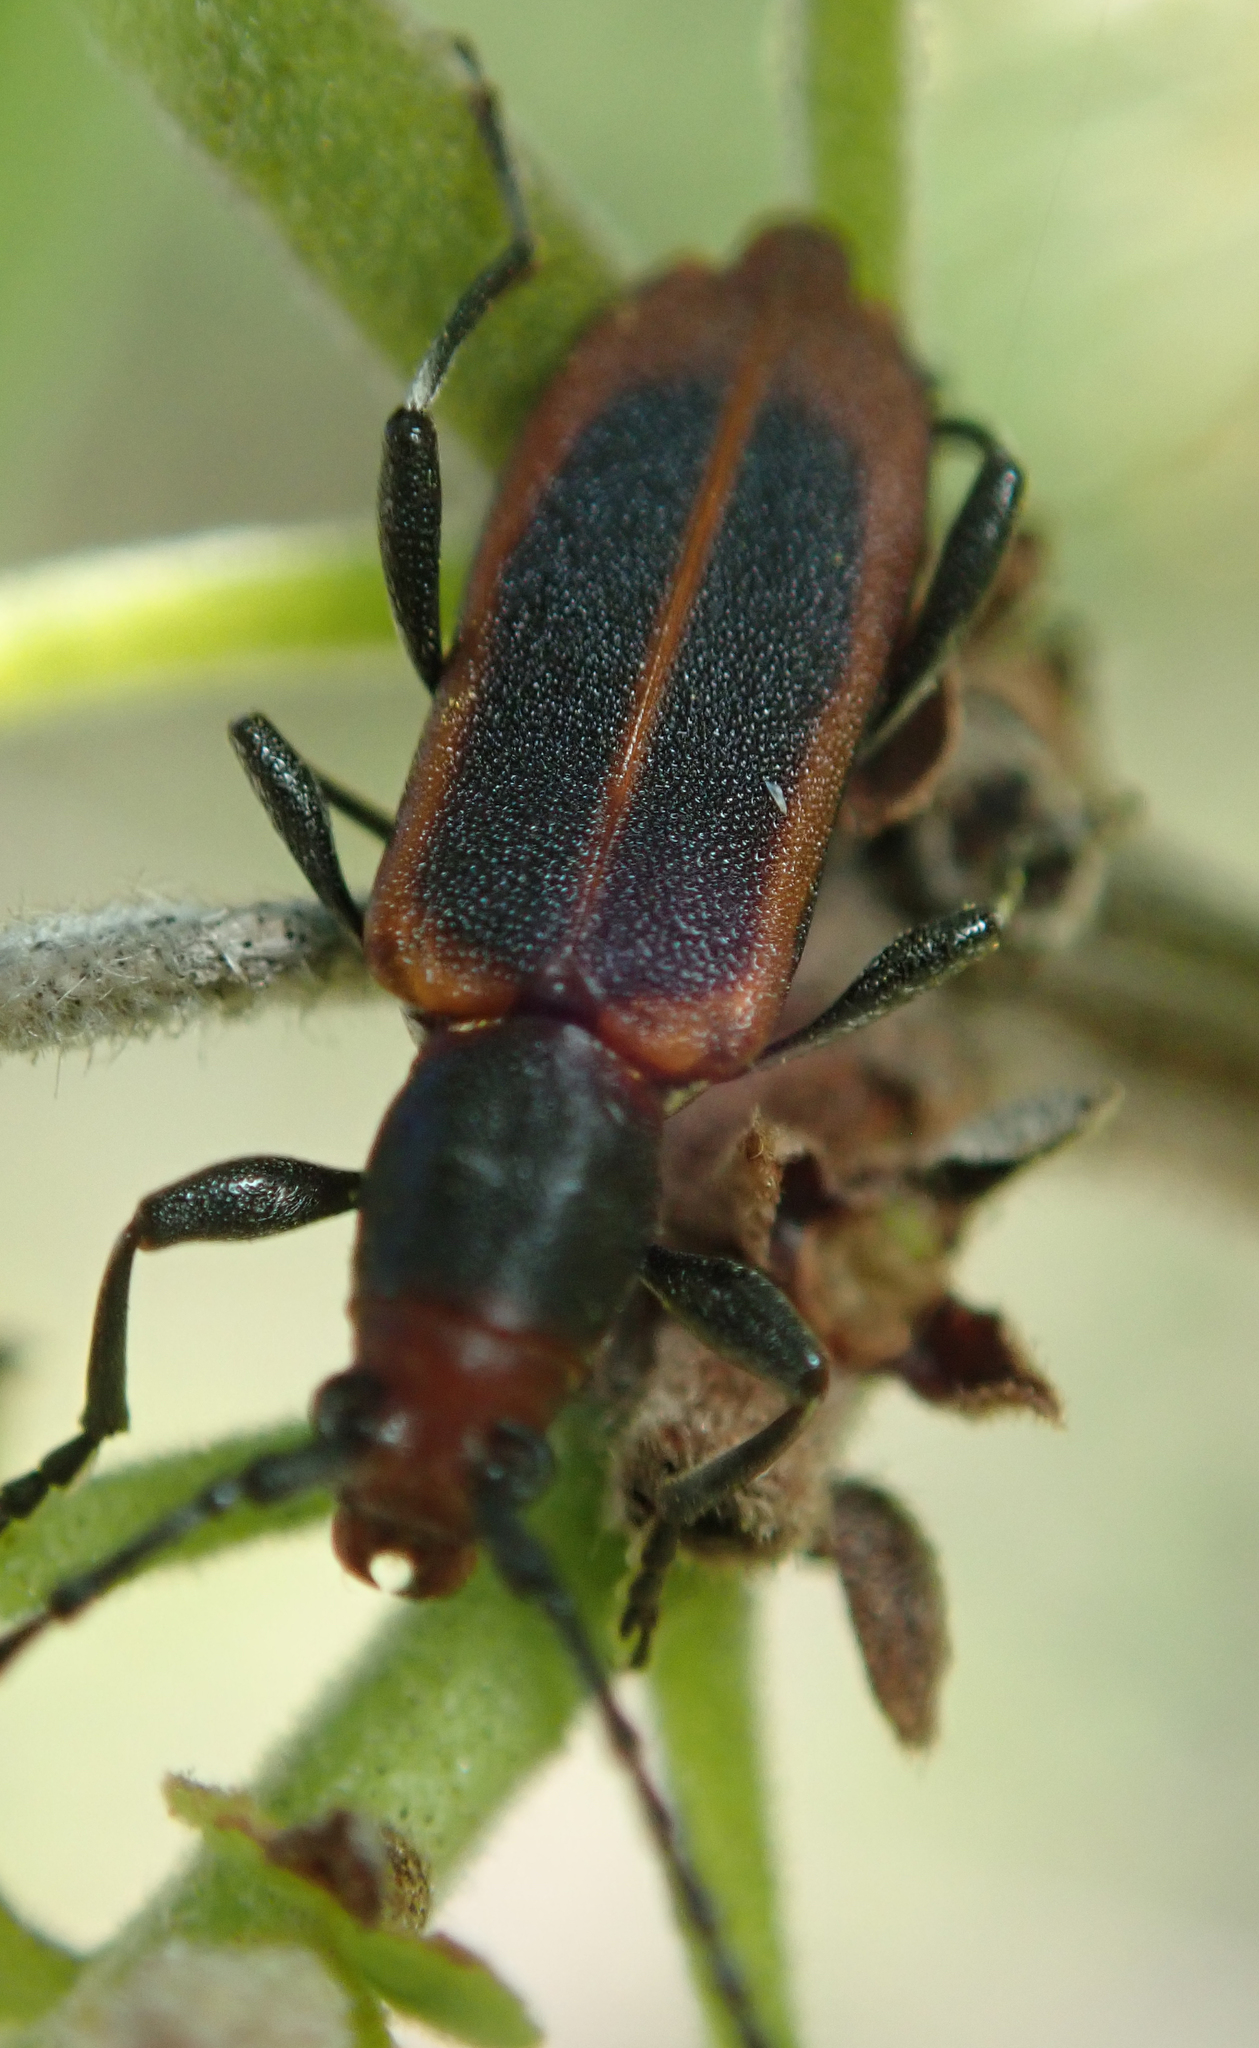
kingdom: Animalia
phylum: Arthropoda
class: Insecta
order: Coleoptera
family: Cerambycidae
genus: Dere
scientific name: Dere vittata
